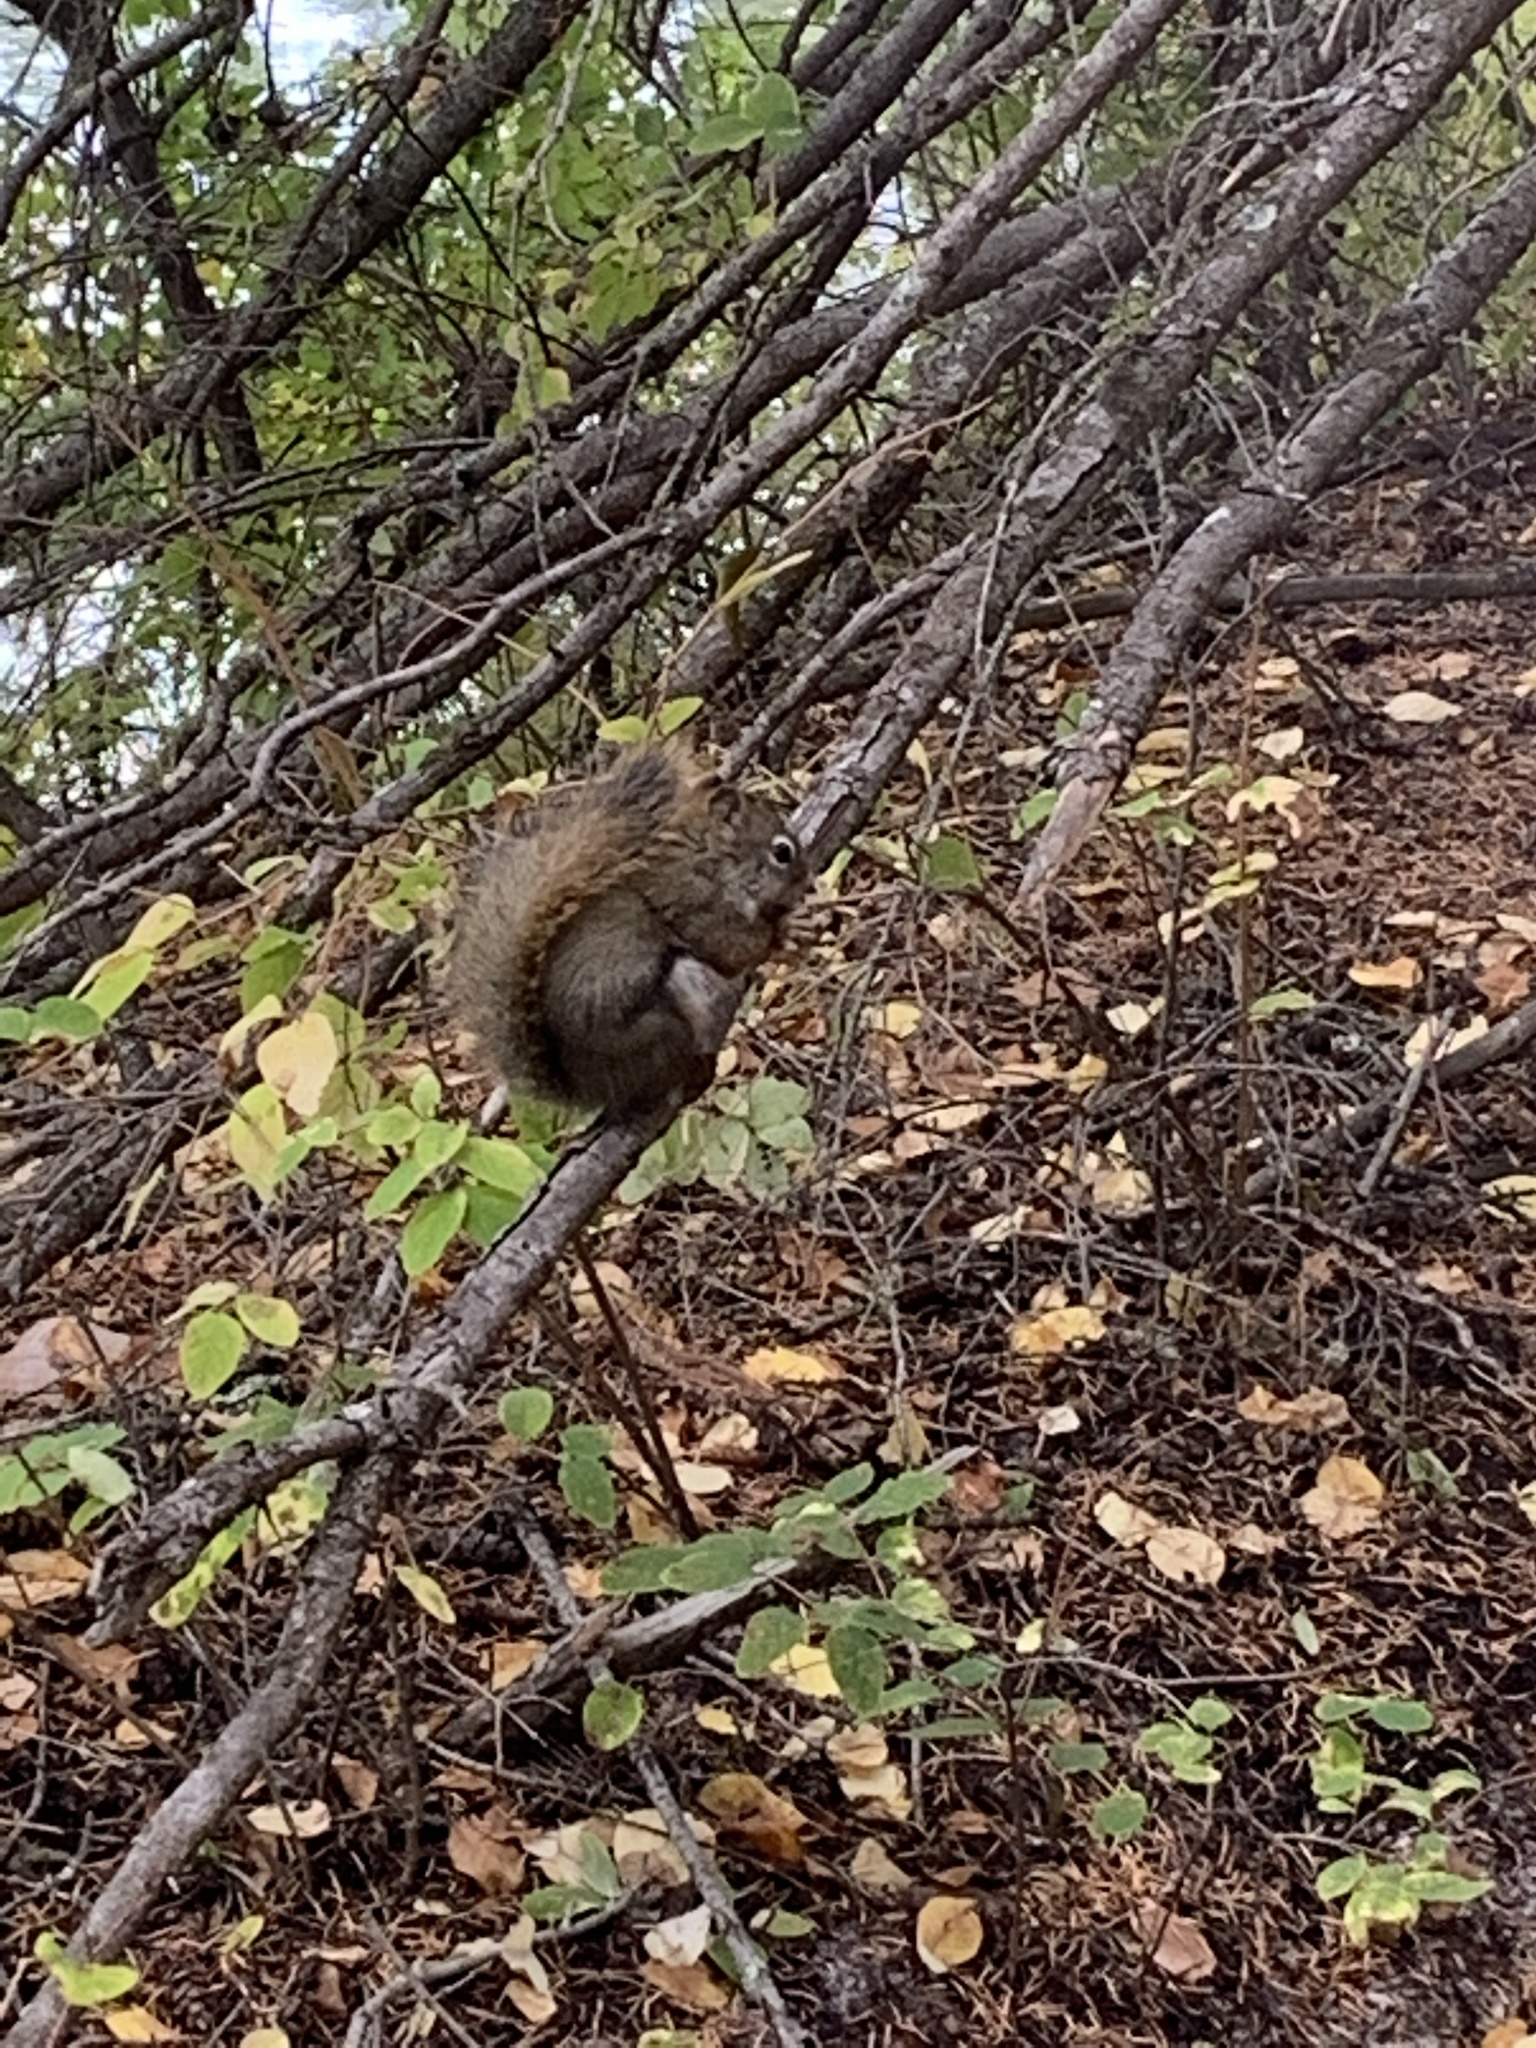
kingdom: Animalia
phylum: Chordata
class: Mammalia
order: Rodentia
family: Sciuridae
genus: Tamiasciurus
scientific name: Tamiasciurus hudsonicus
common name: Red squirrel
